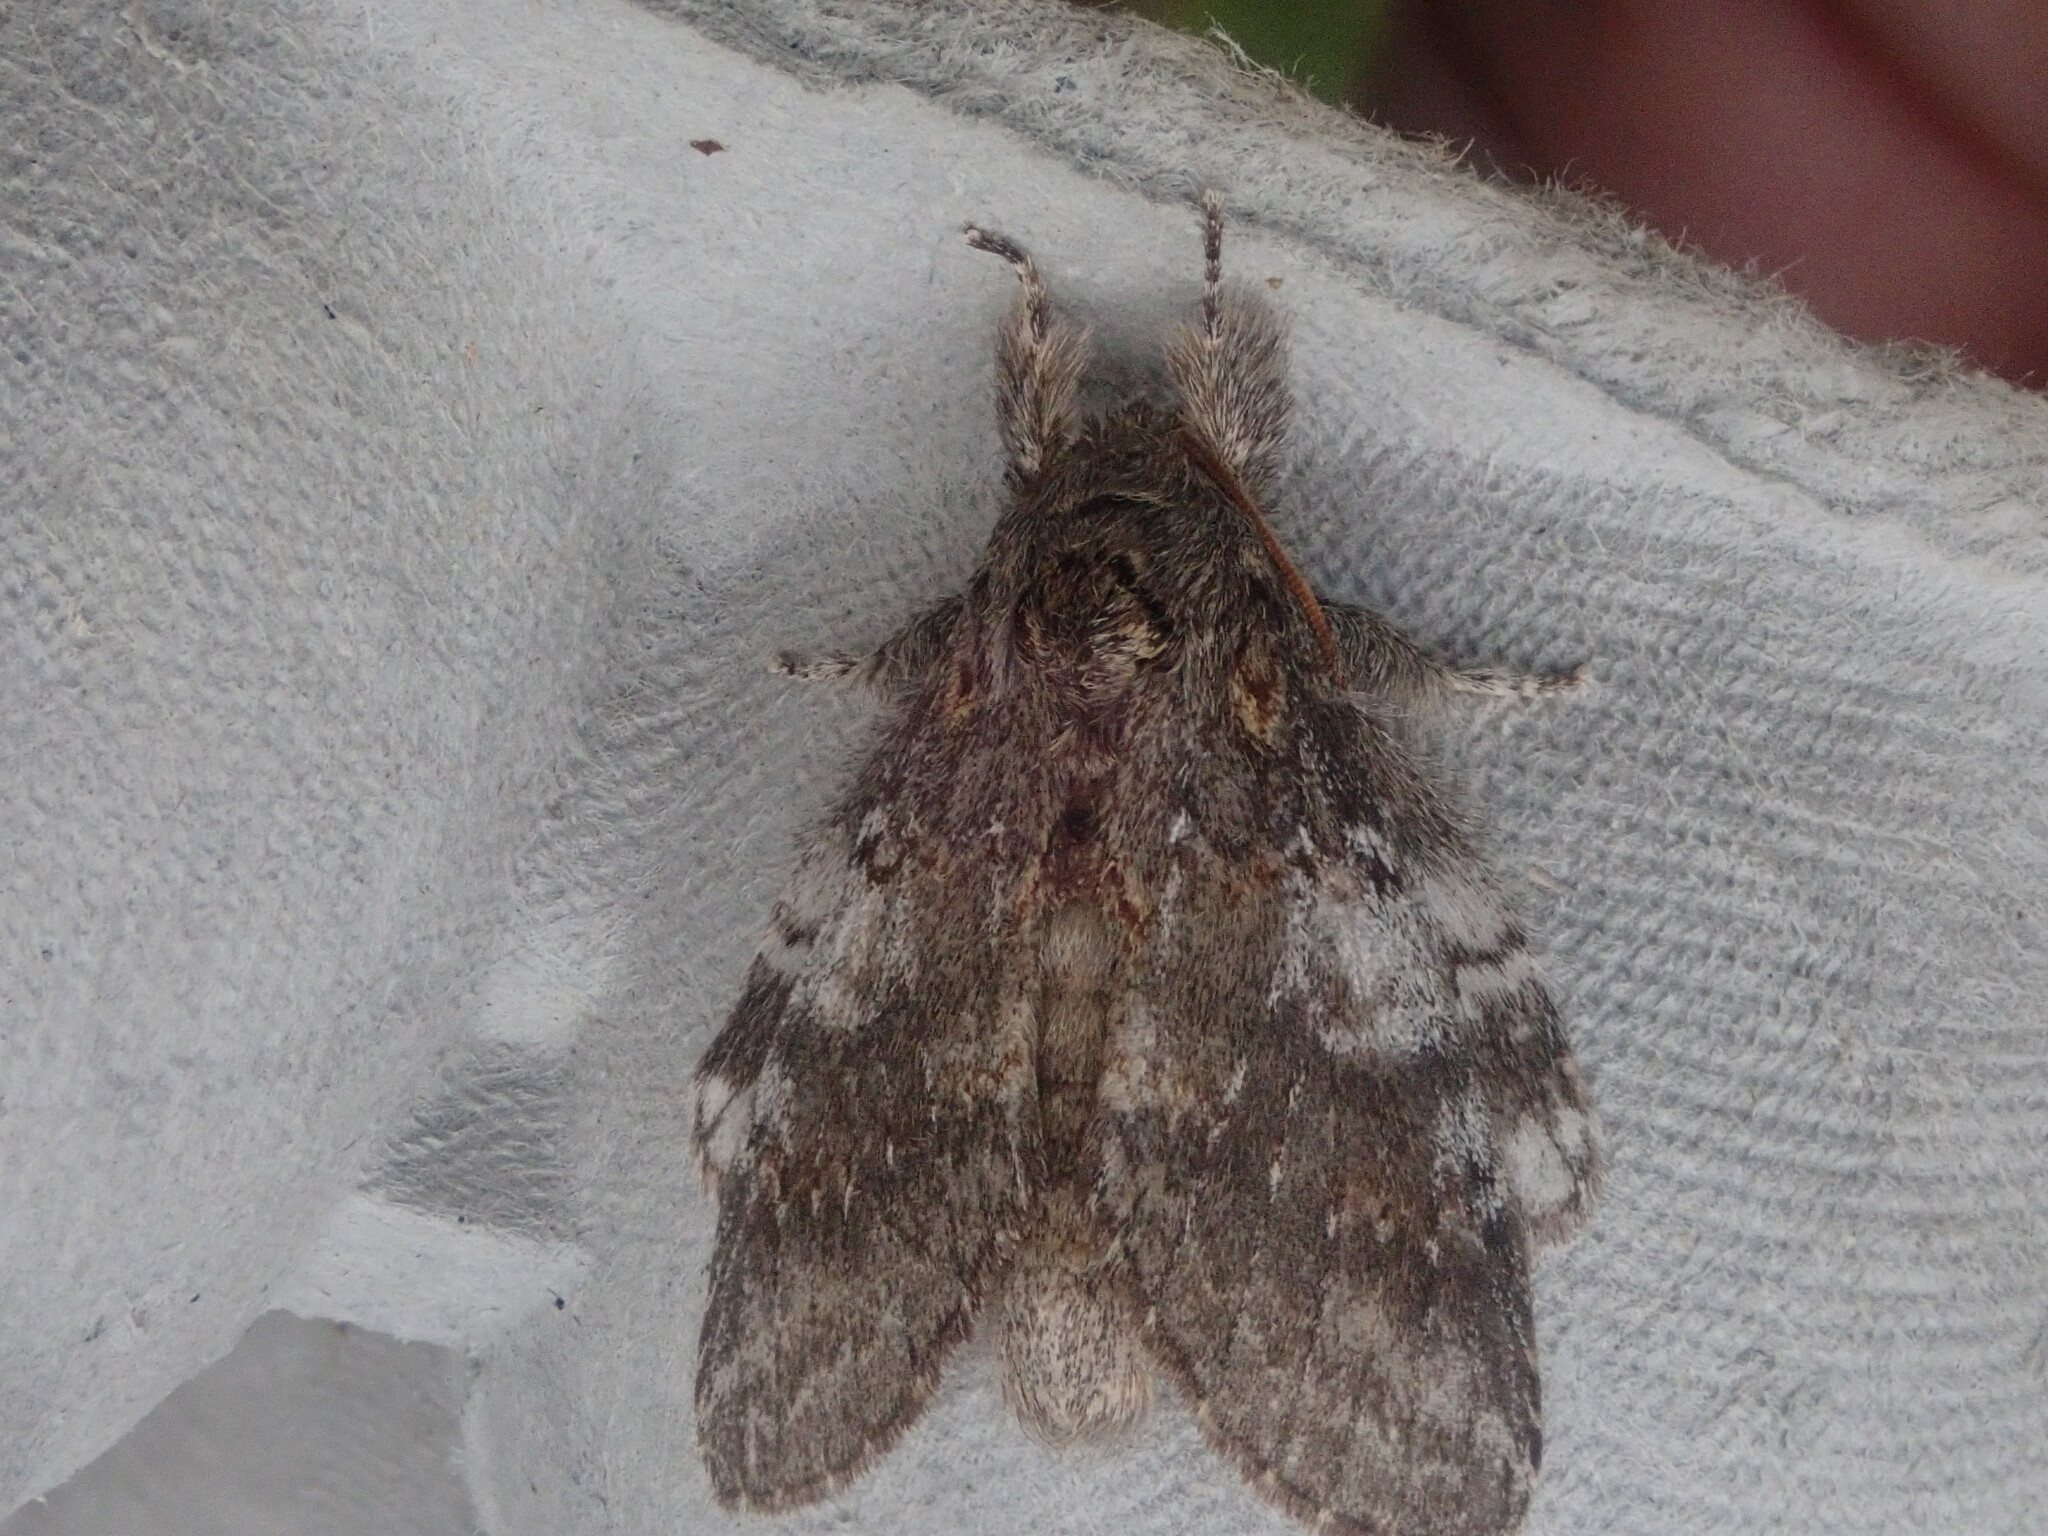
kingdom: Animalia
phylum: Arthropoda
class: Insecta
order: Lepidoptera
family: Notodontidae
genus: Peridea
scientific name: Peridea angulosa
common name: Angulose prominent
